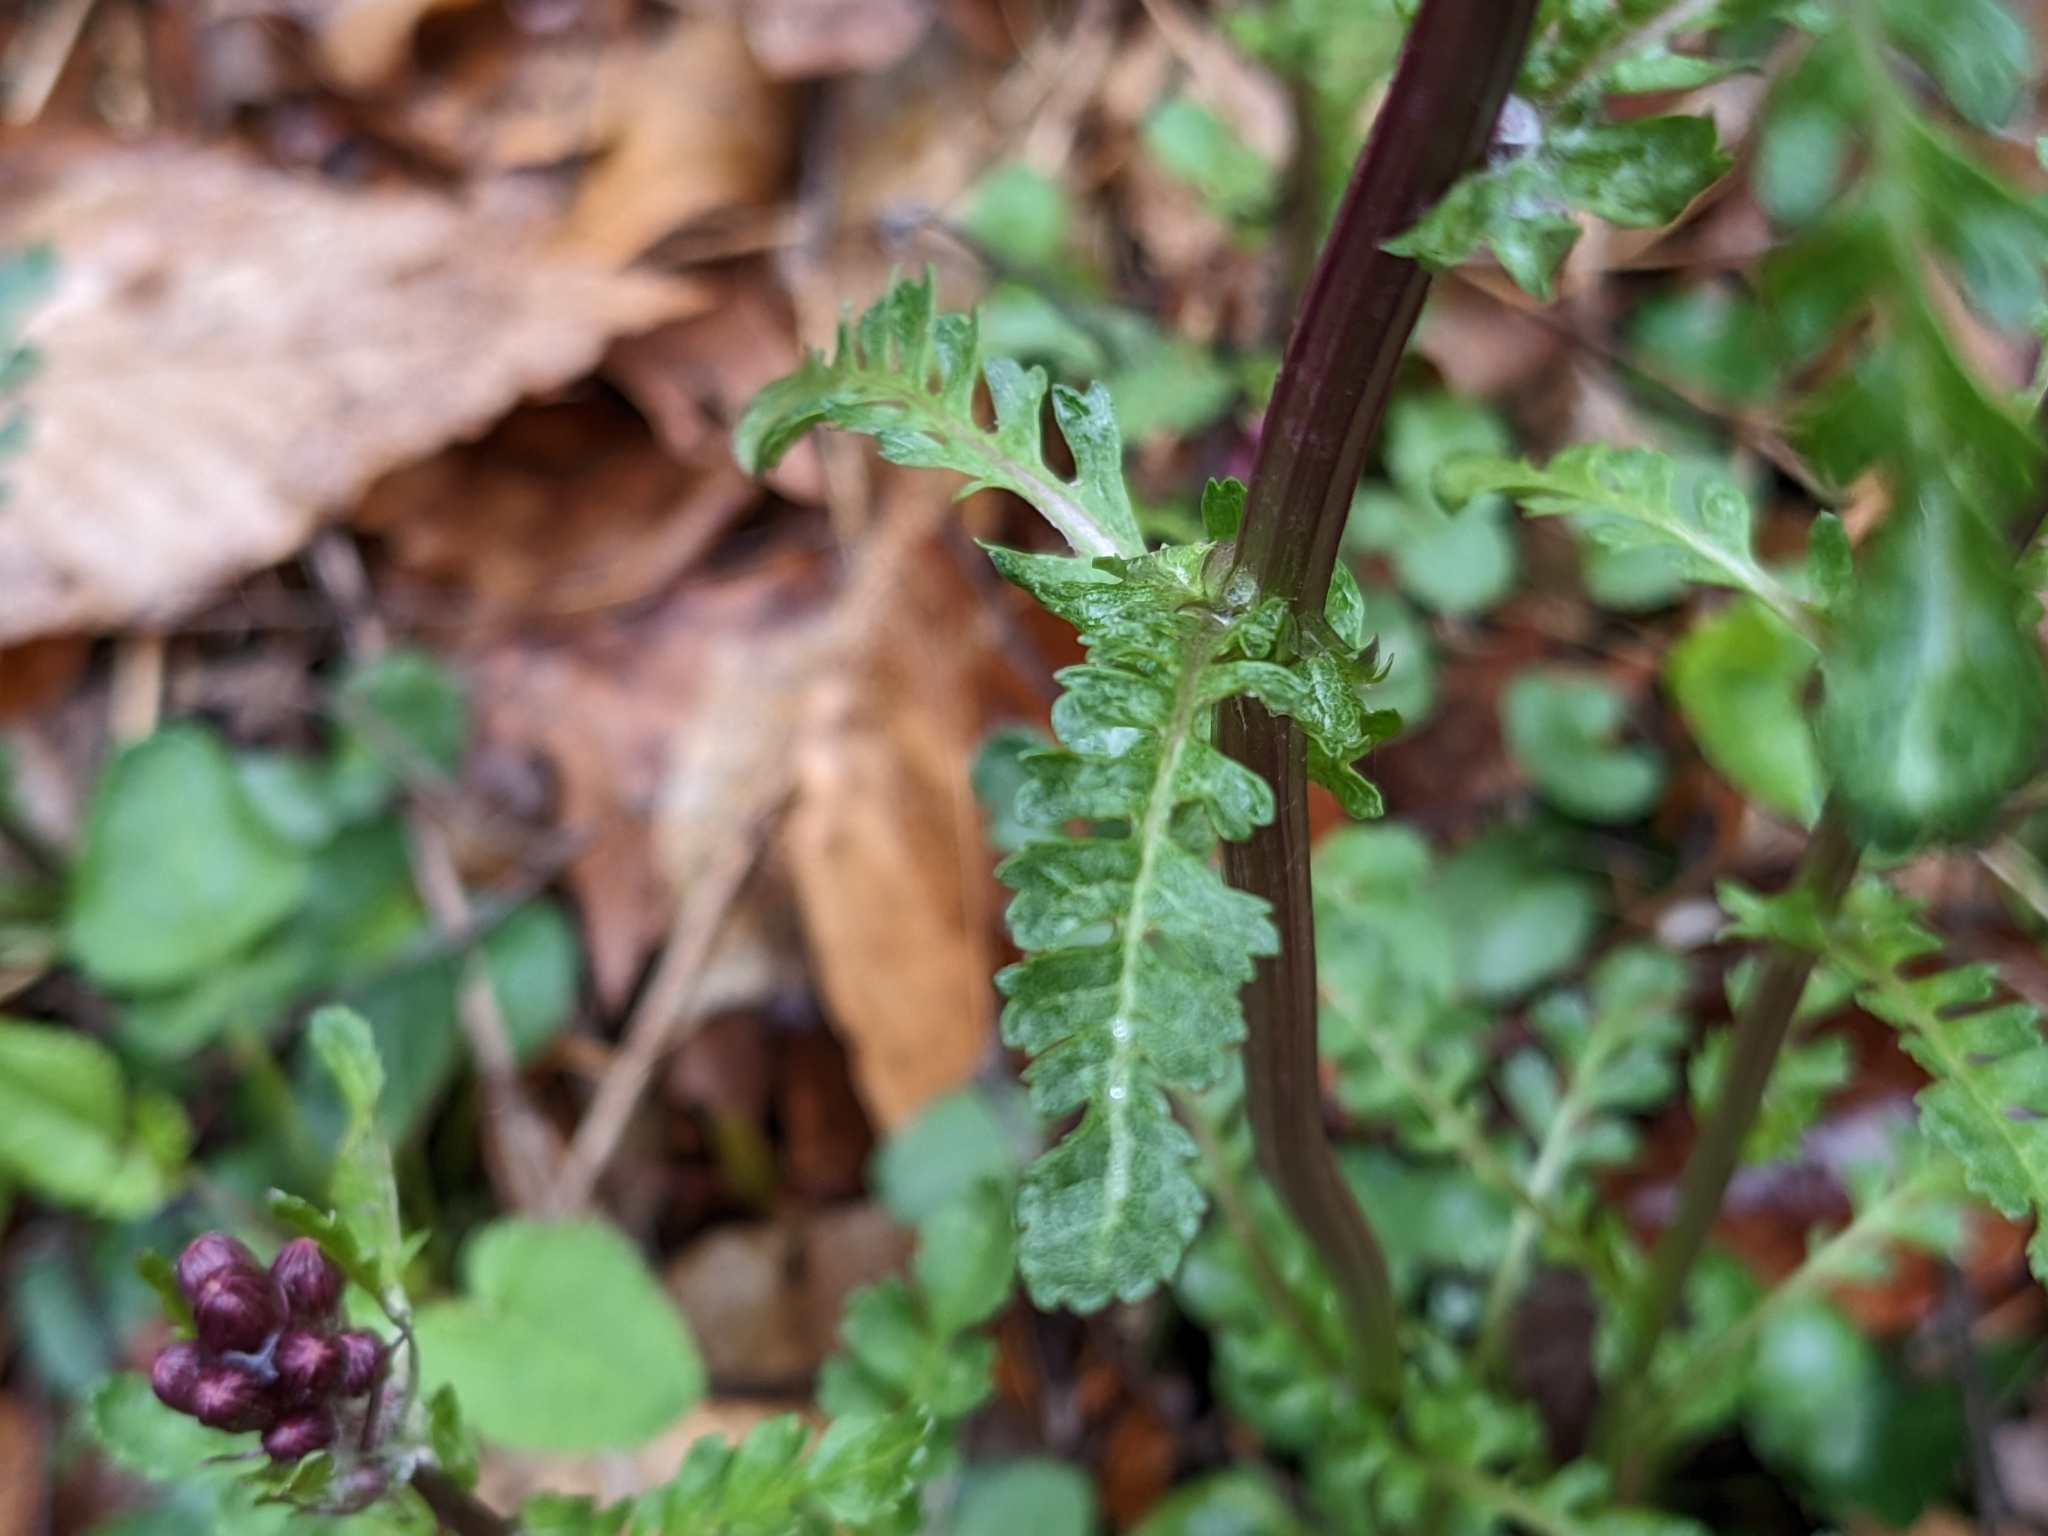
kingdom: Plantae
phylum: Tracheophyta
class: Magnoliopsida
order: Asterales
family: Asteraceae
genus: Packera
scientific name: Packera aurea
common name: Golden groundsel
